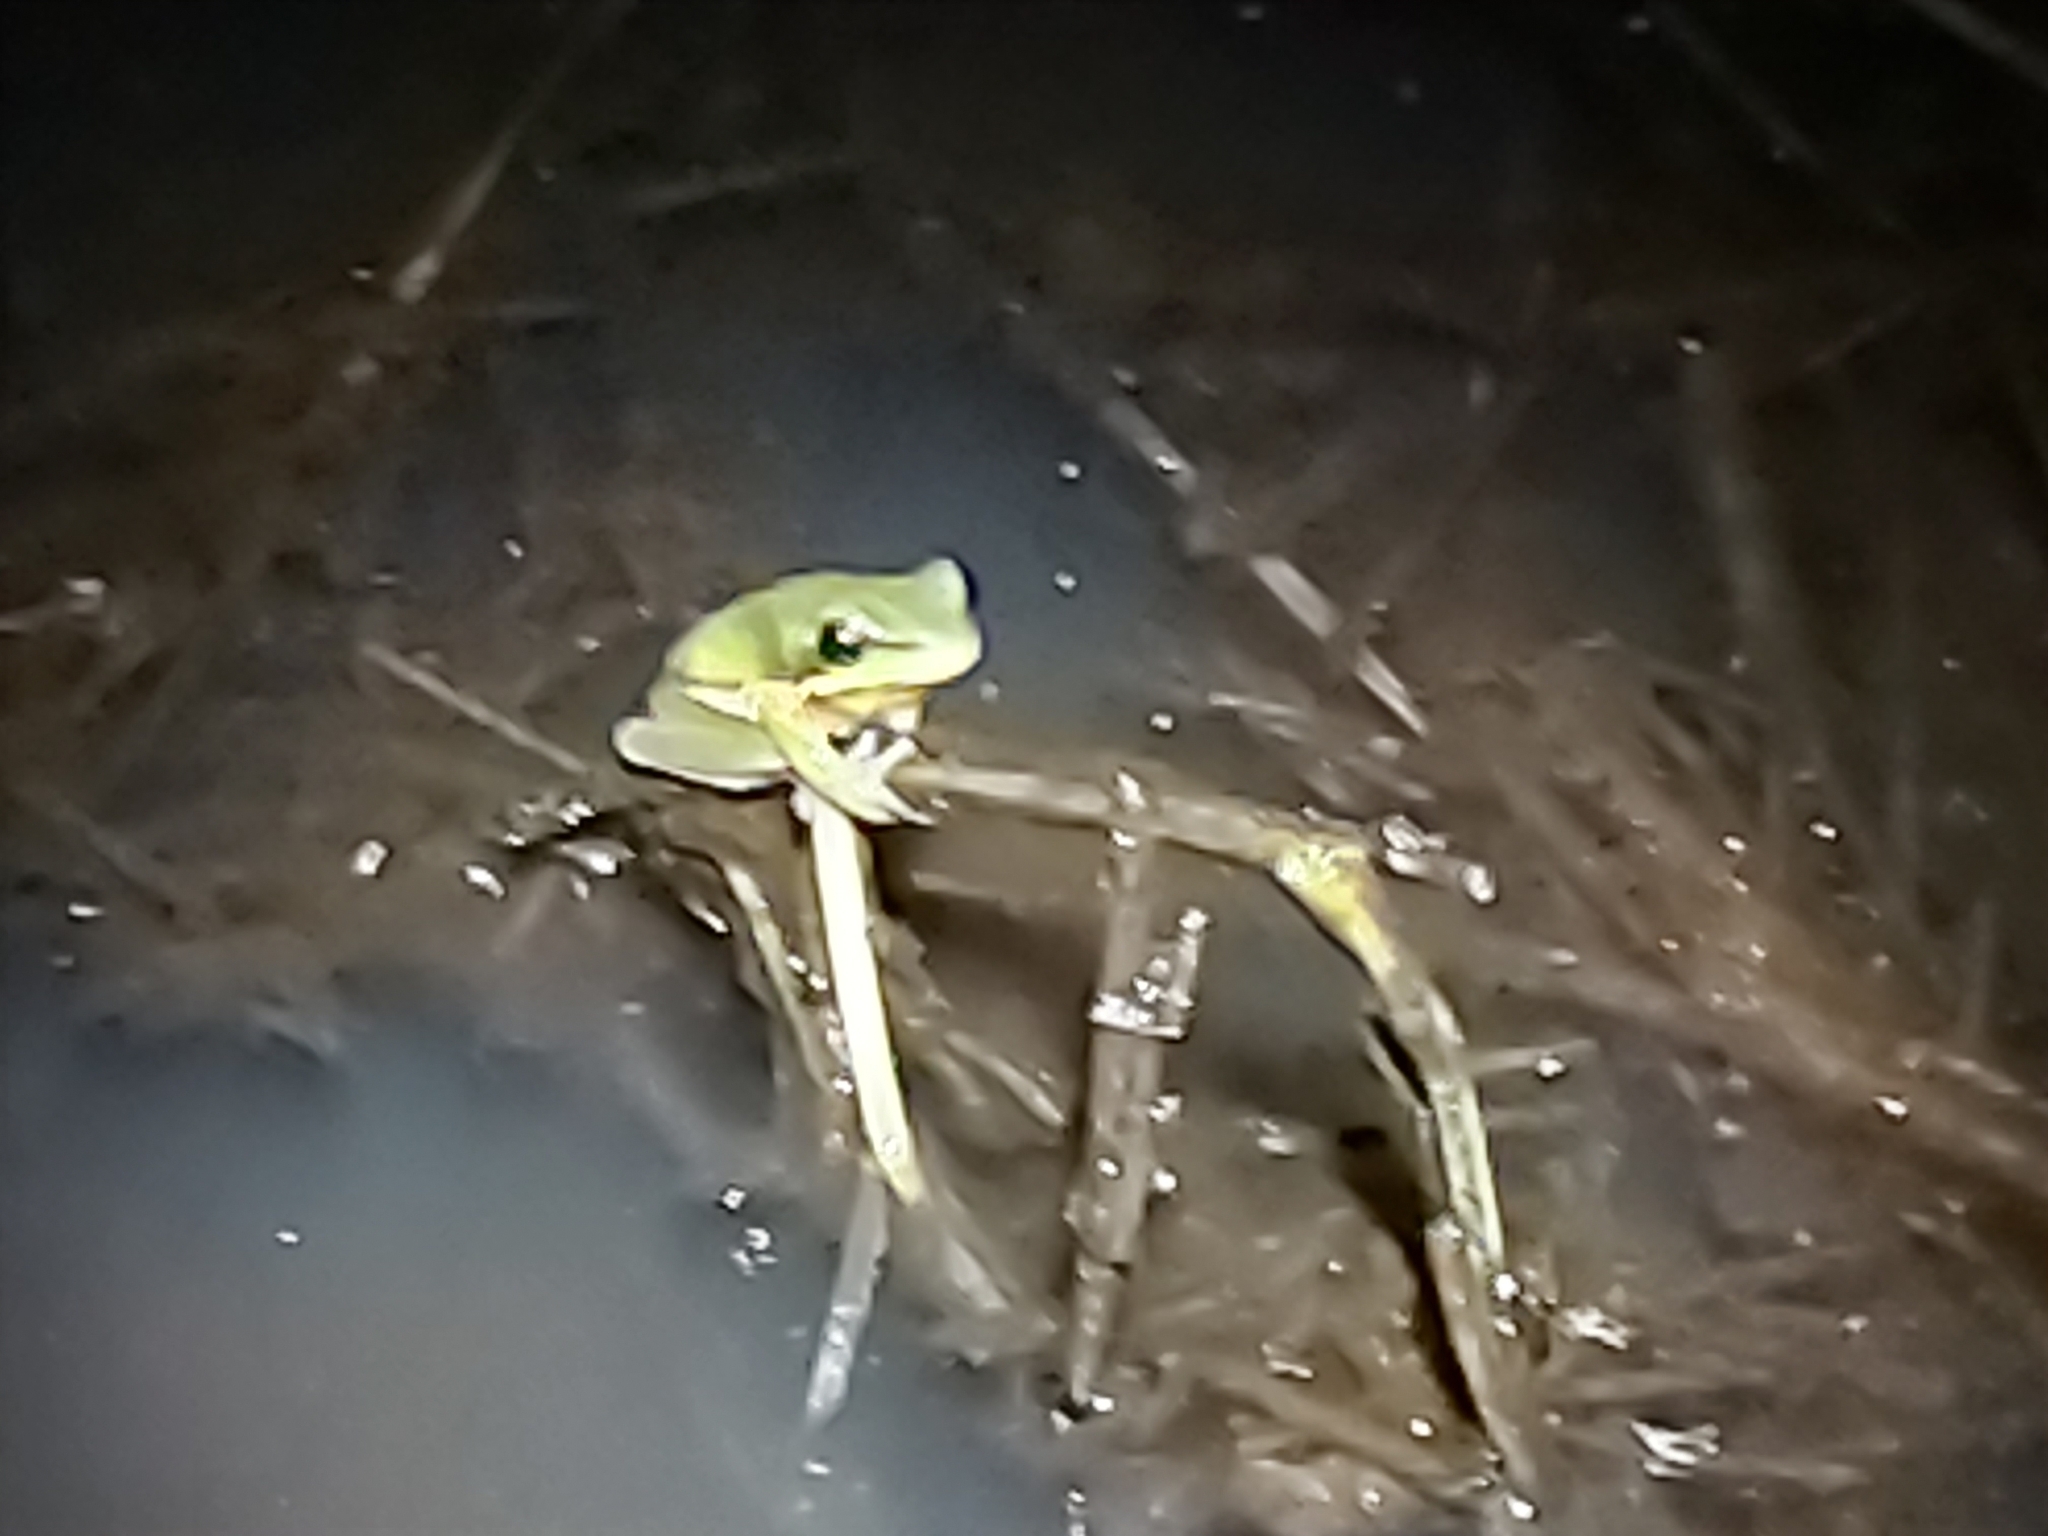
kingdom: Animalia
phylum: Chordata
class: Amphibia
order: Anura
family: Pelodryadidae
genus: Litoria
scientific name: Litoria fallax
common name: Eastern dwarf treefrog
